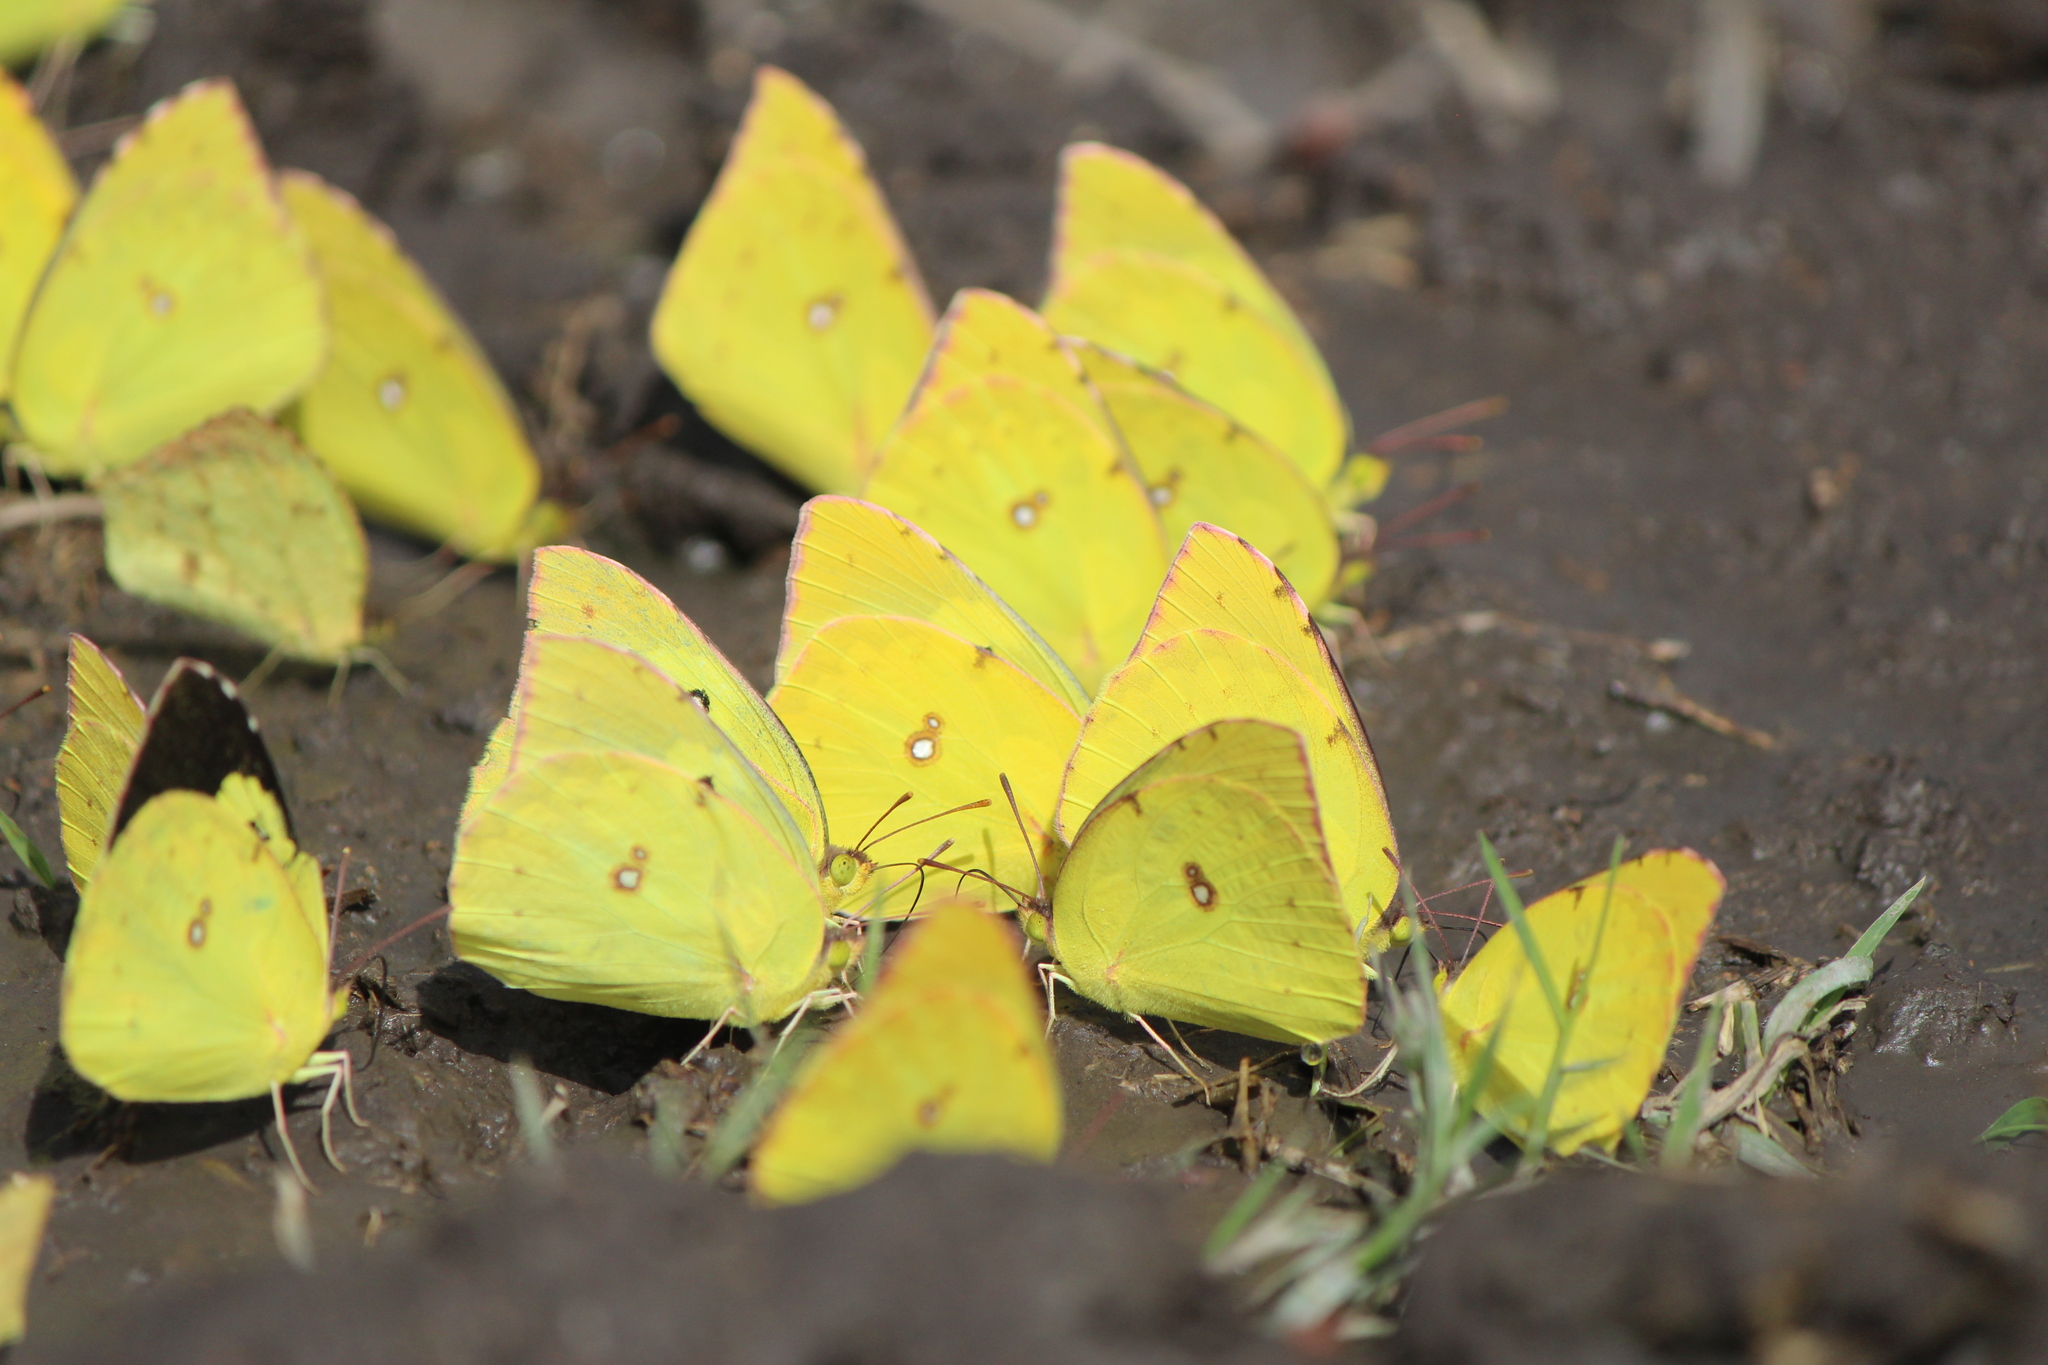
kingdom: Animalia
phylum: Arthropoda
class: Insecta
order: Lepidoptera
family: Pieridae
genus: Zerene
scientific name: Zerene cesonia
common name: Southern dogface
